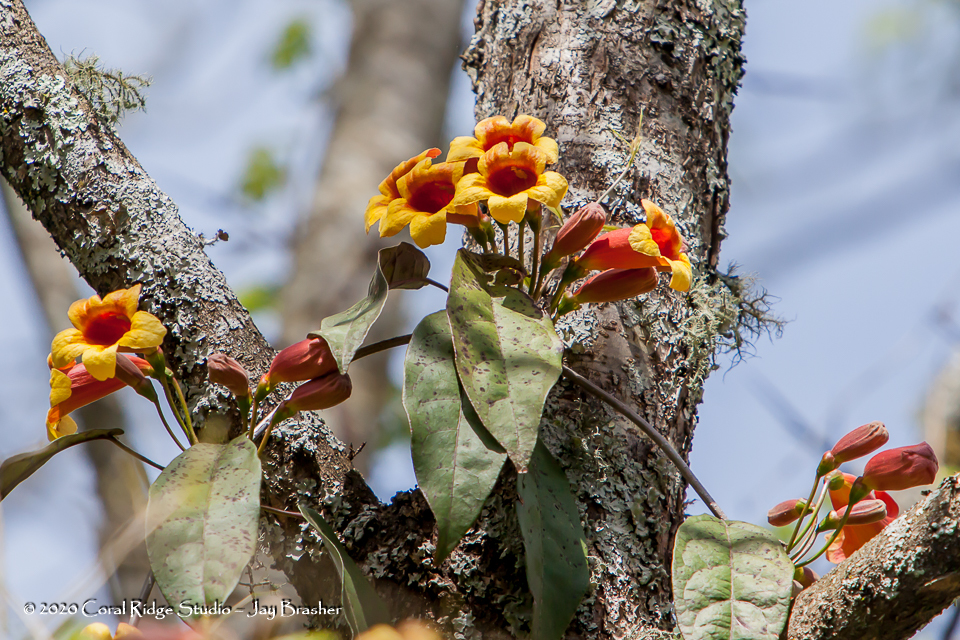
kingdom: Plantae
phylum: Tracheophyta
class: Magnoliopsida
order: Lamiales
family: Bignoniaceae
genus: Bignonia
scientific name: Bignonia capreolata
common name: Crossvine
